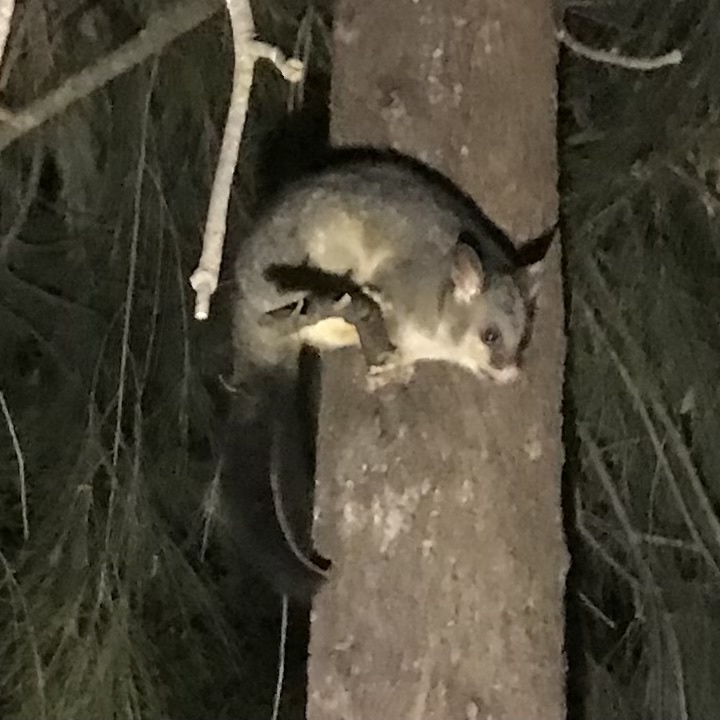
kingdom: Animalia
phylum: Chordata
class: Mammalia
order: Diprotodontia
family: Phalangeridae
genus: Trichosurus
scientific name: Trichosurus vulpecula
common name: Common brushtail
